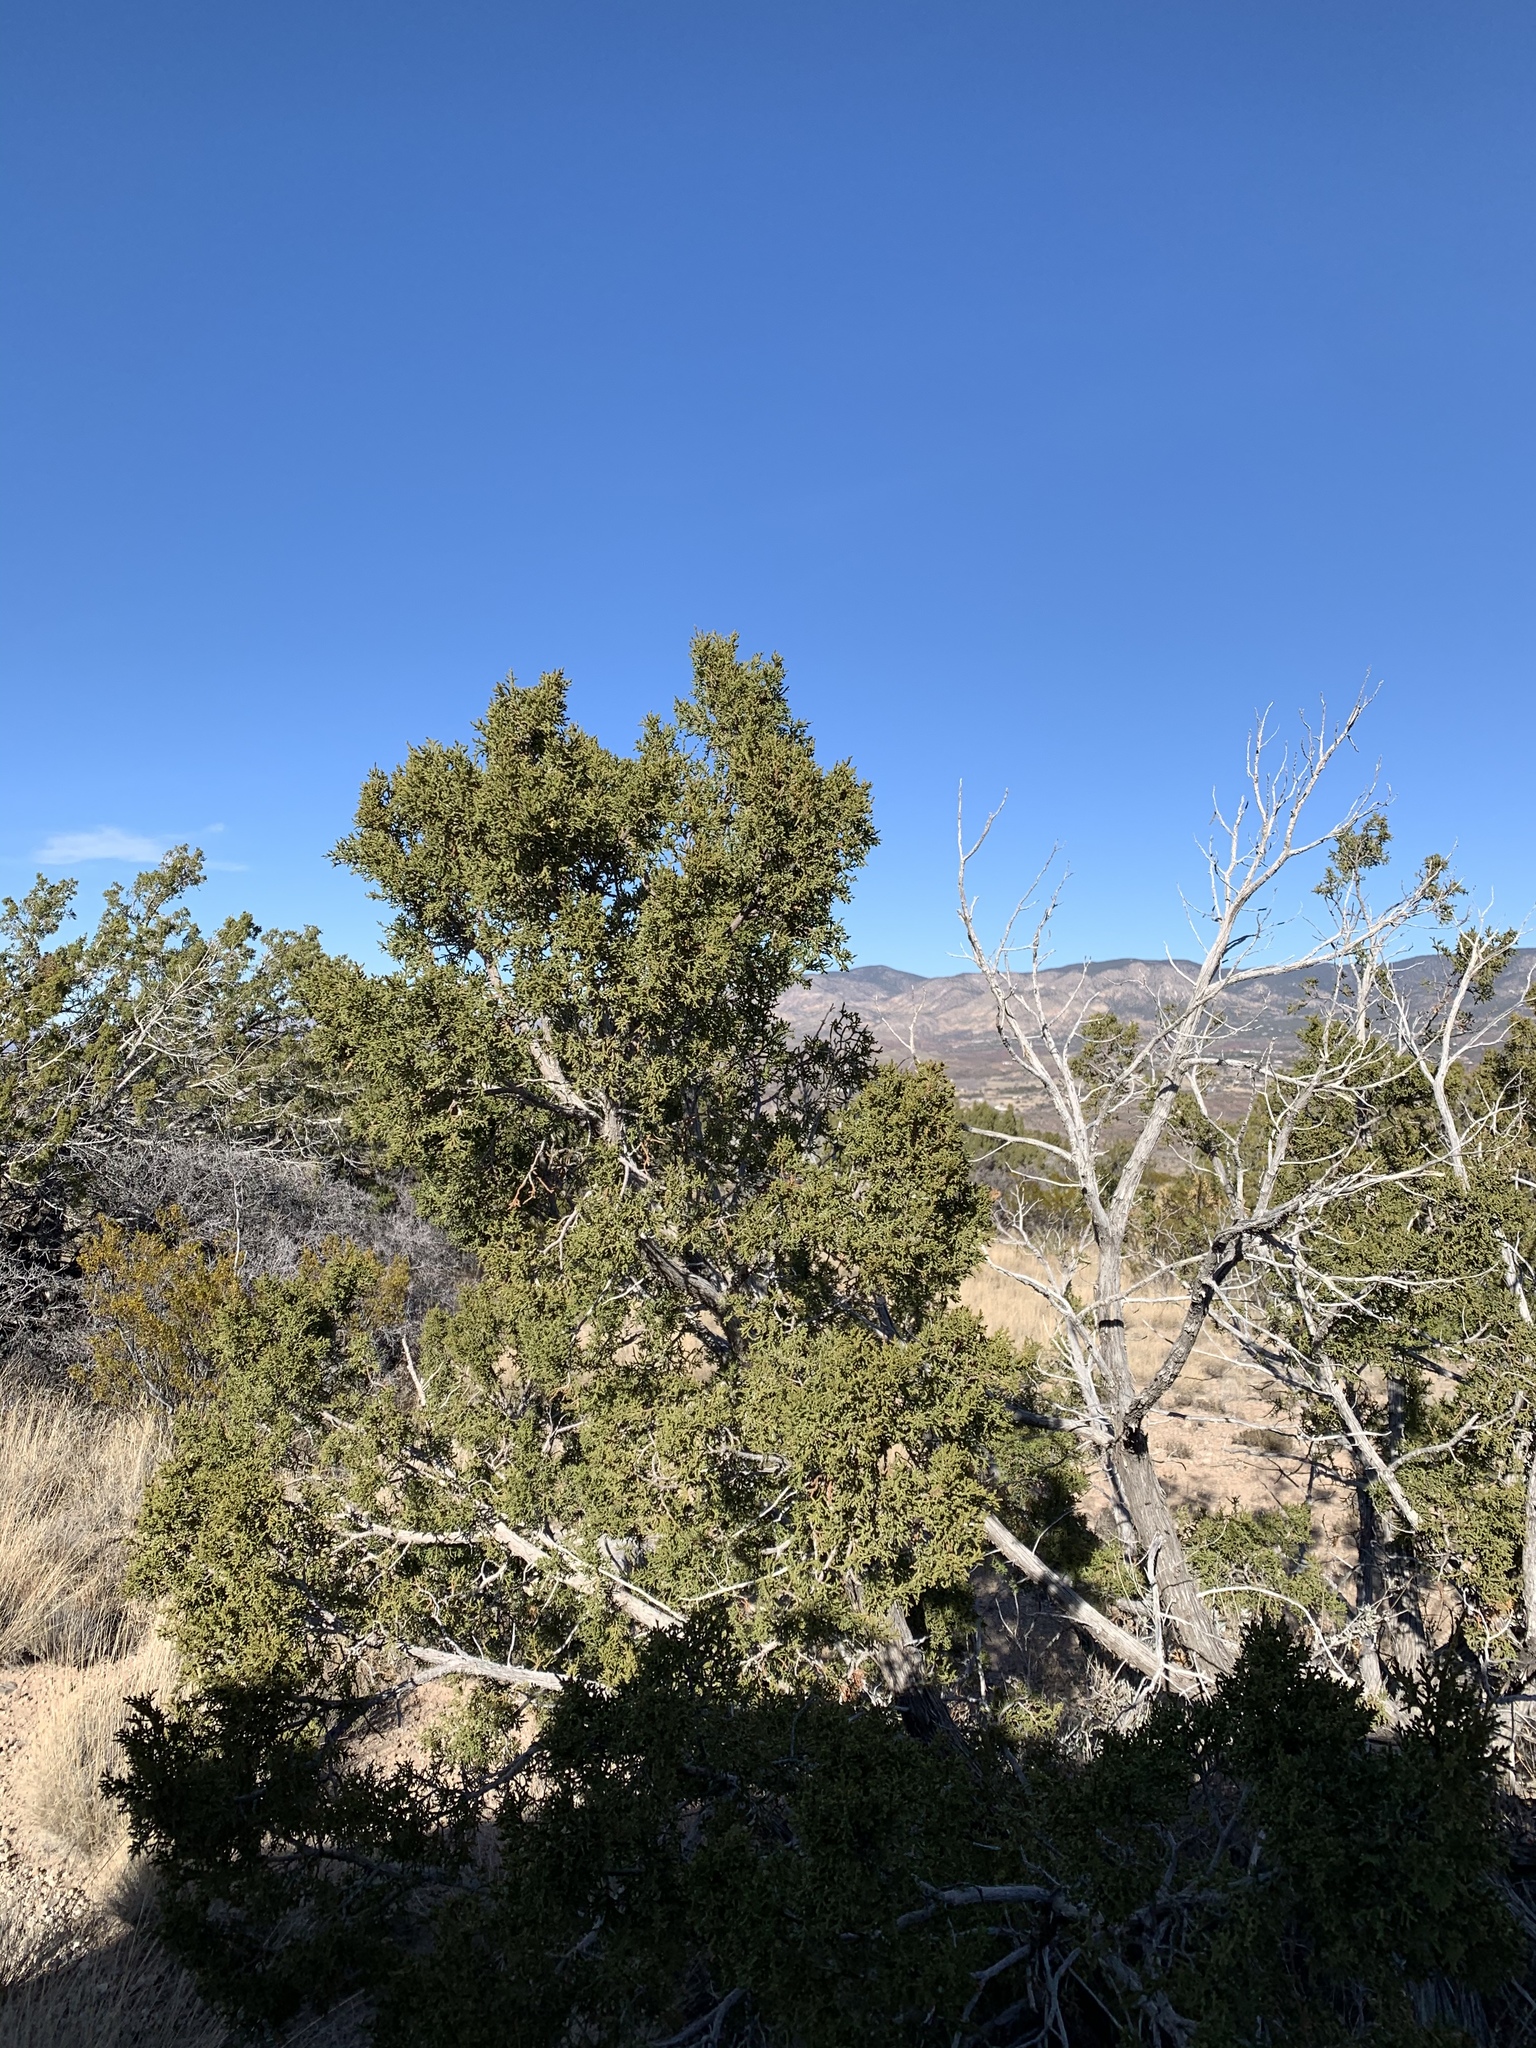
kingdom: Plantae
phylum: Tracheophyta
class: Pinopsida
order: Pinales
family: Cupressaceae
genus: Juniperus
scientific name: Juniperus monosperma
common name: One-seed juniper
